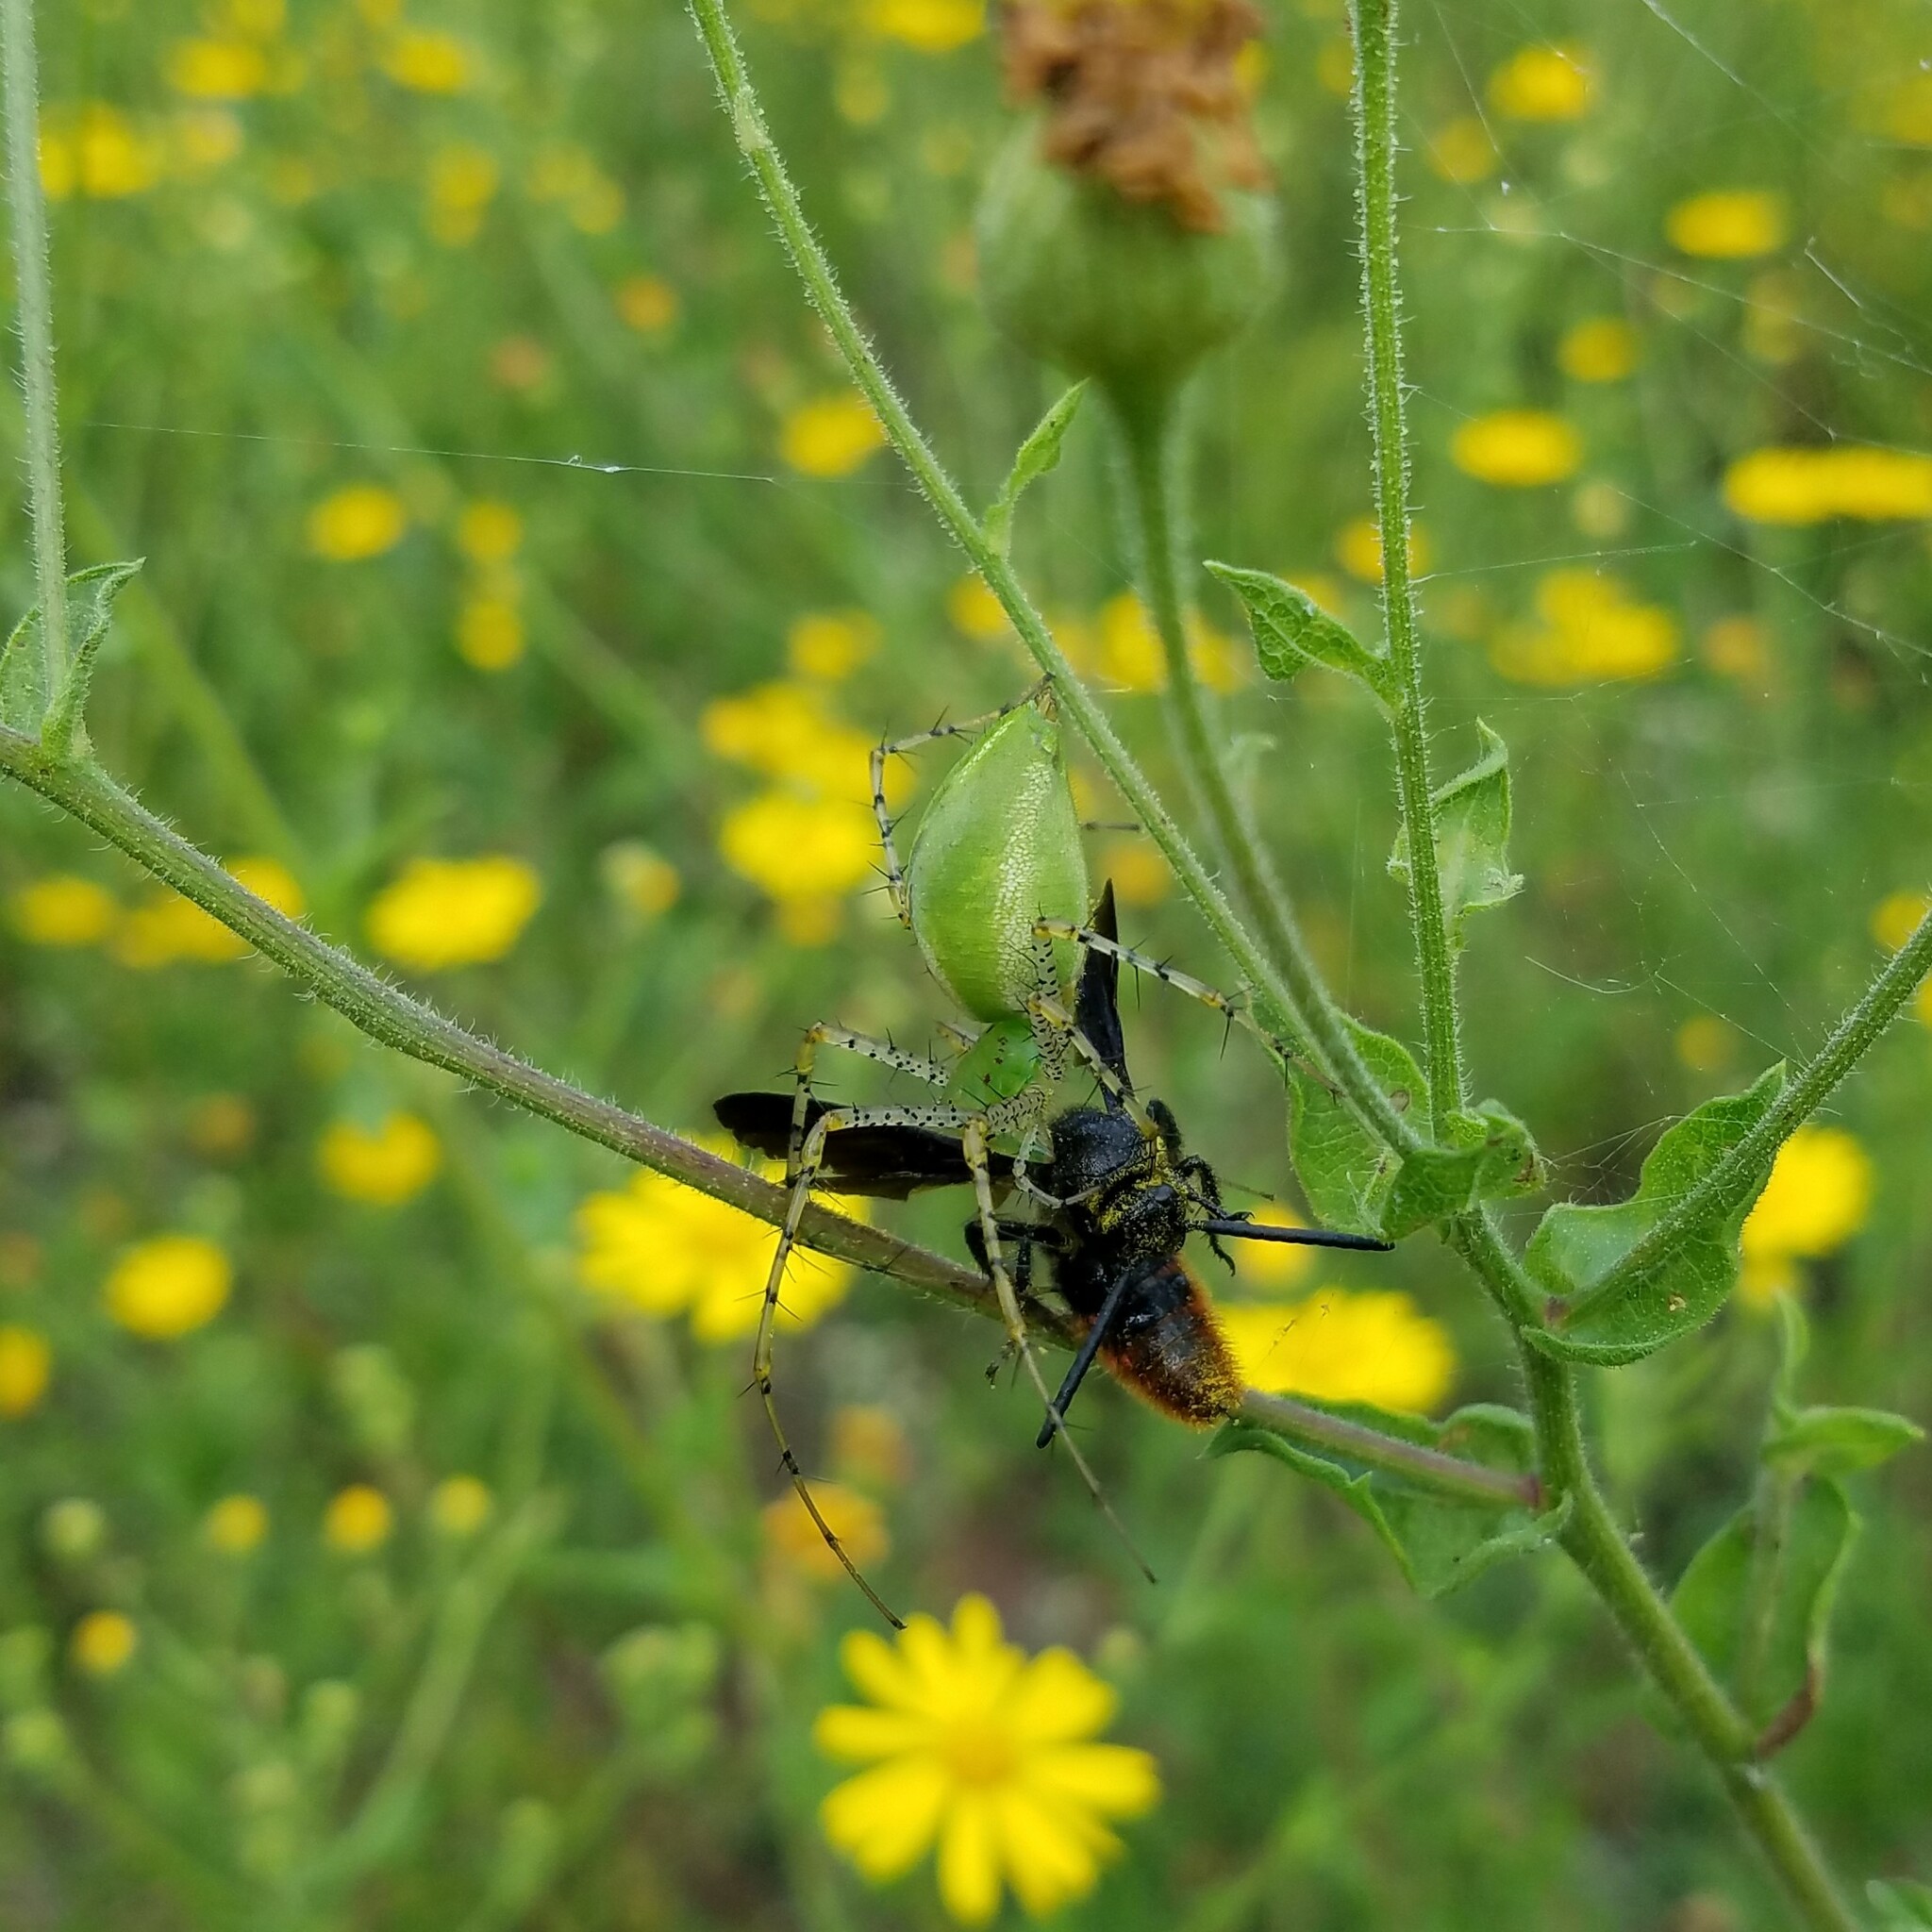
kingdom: Animalia
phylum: Arthropoda
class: Arachnida
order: Araneae
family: Oxyopidae
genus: Peucetia
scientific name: Peucetia viridans
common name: Lynx spiders
